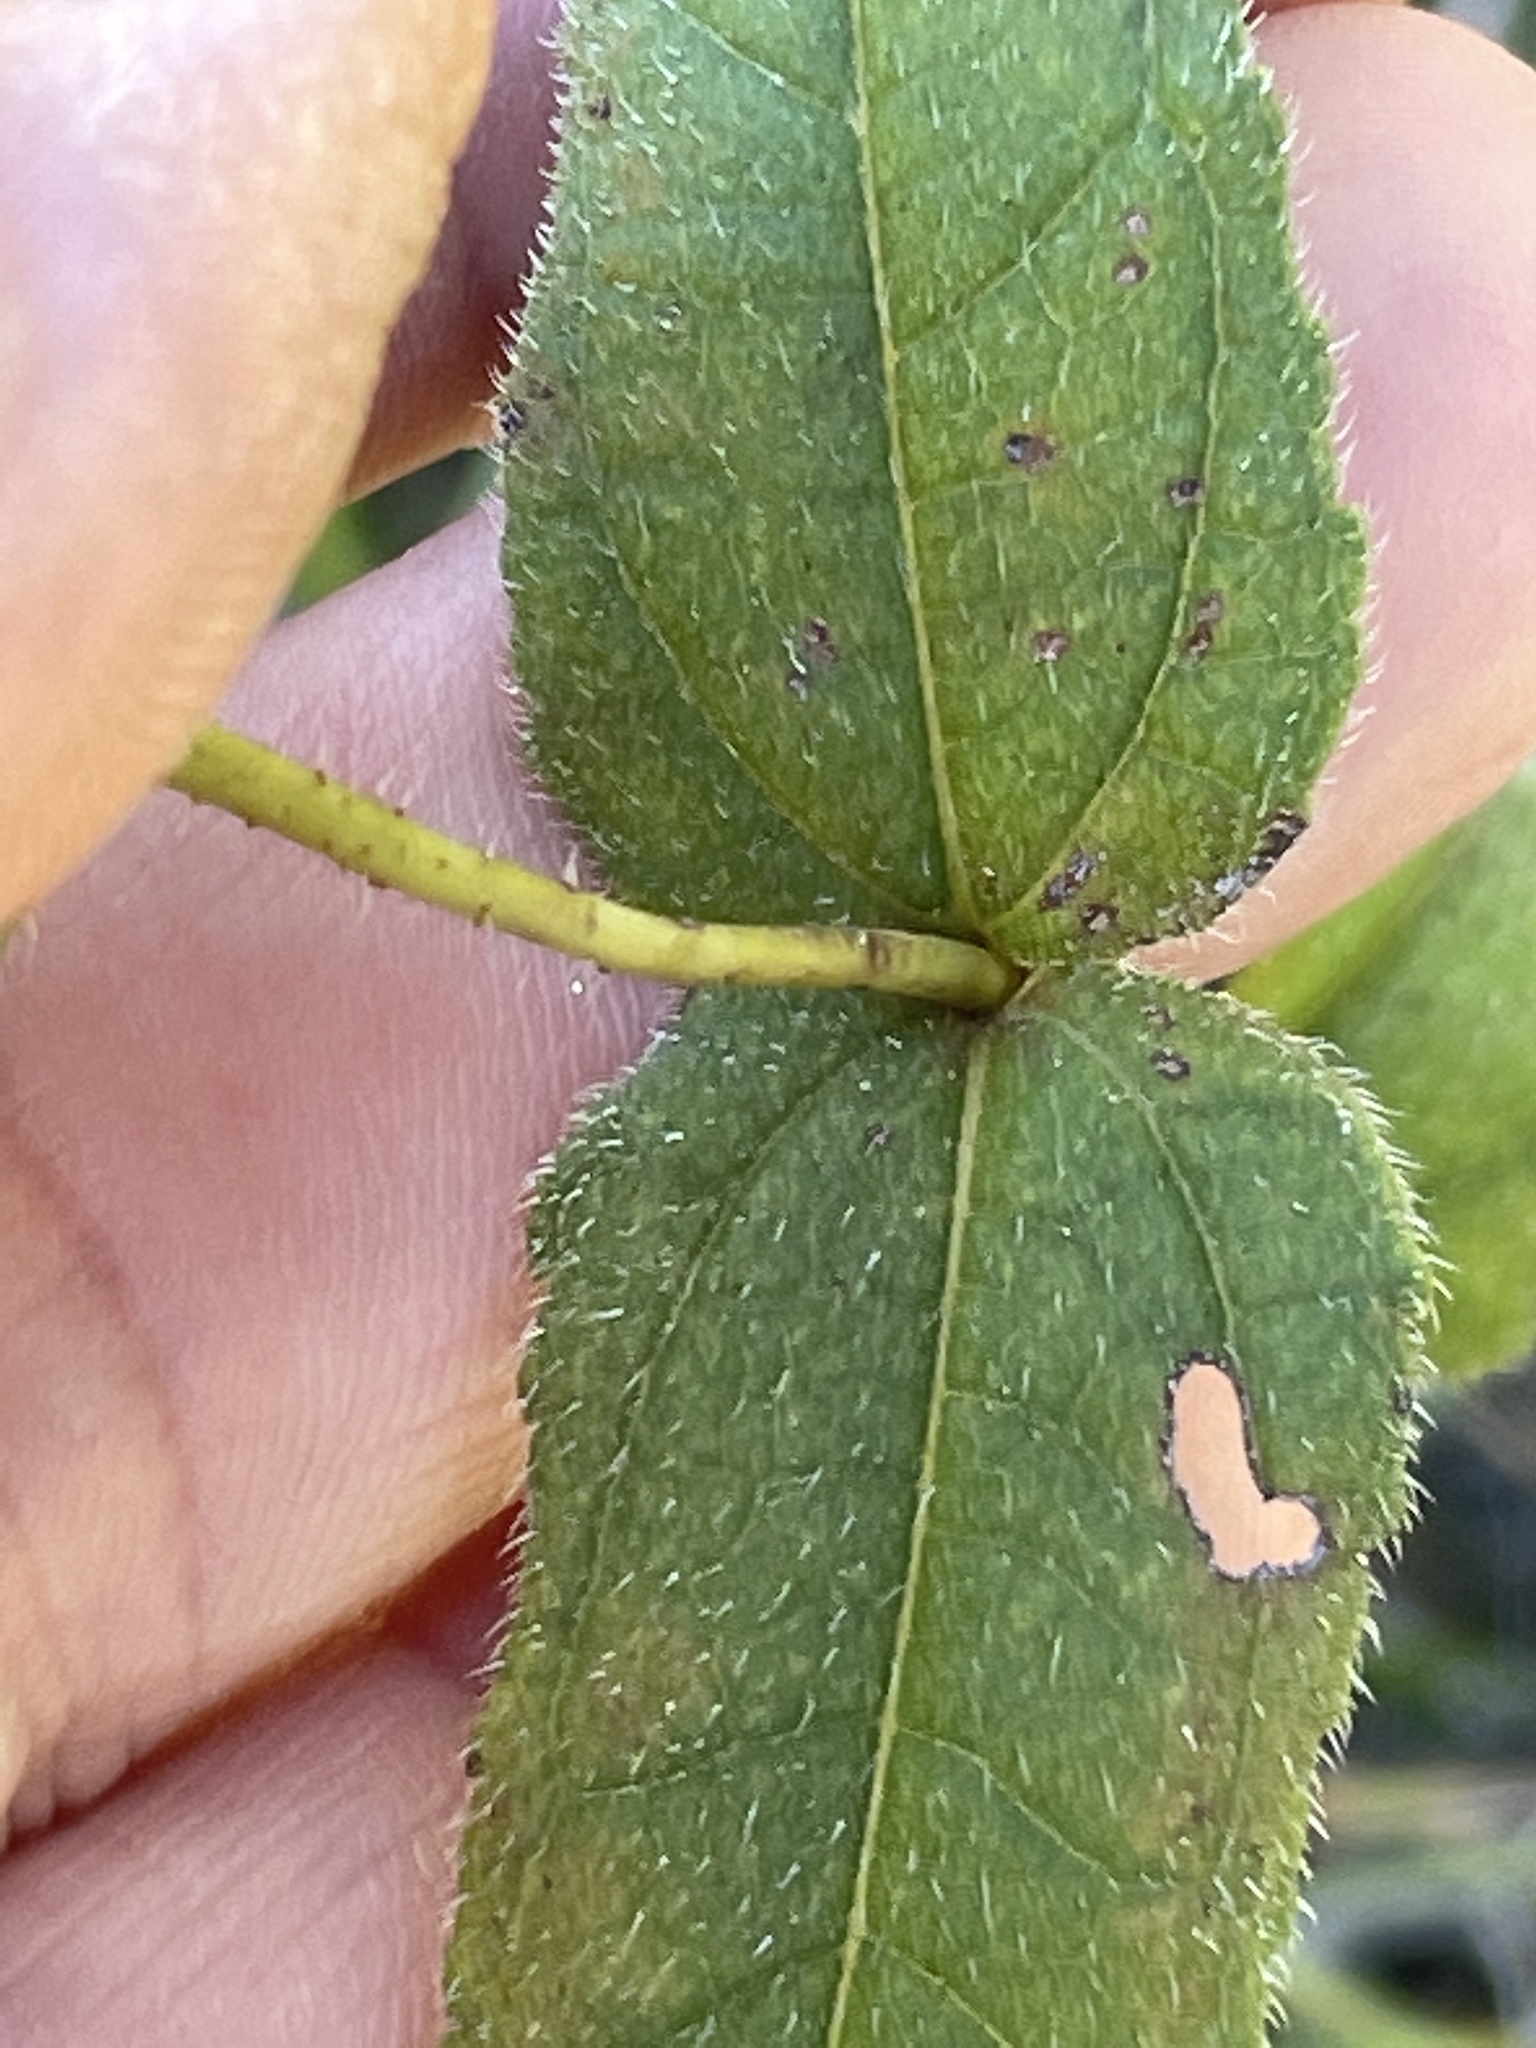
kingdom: Plantae
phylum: Tracheophyta
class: Magnoliopsida
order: Asterales
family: Asteraceae
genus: Helianthus
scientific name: Helianthus divaricatus
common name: Divergent sunflower
